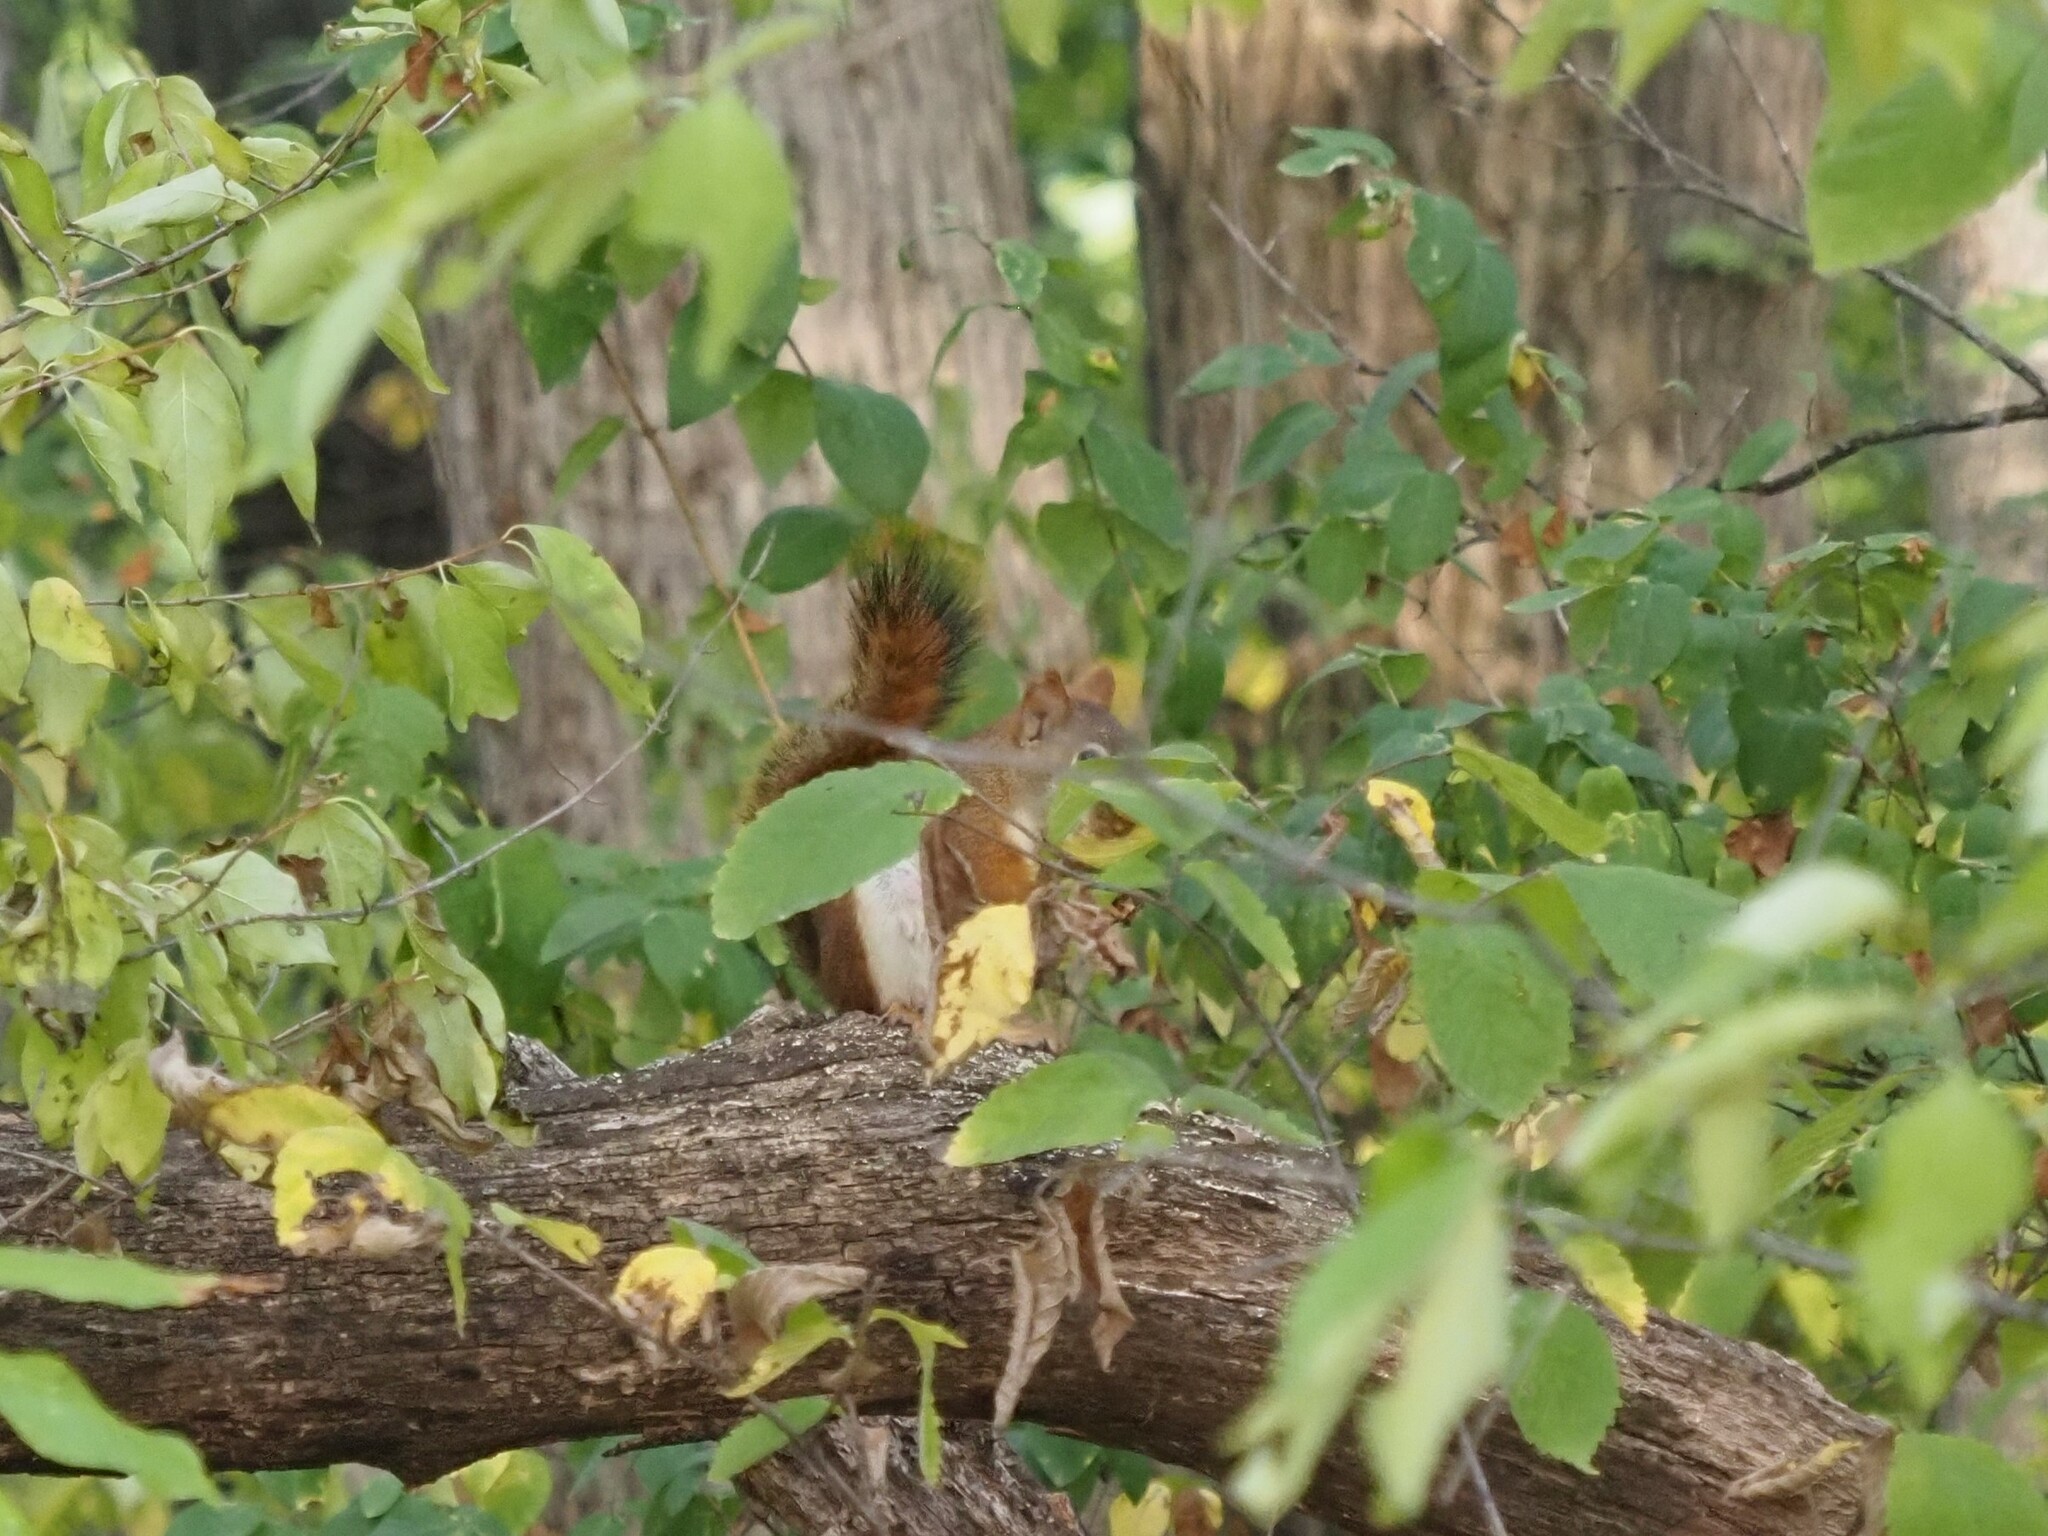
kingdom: Animalia
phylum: Chordata
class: Mammalia
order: Rodentia
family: Sciuridae
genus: Tamiasciurus
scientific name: Tamiasciurus hudsonicus
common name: Red squirrel
